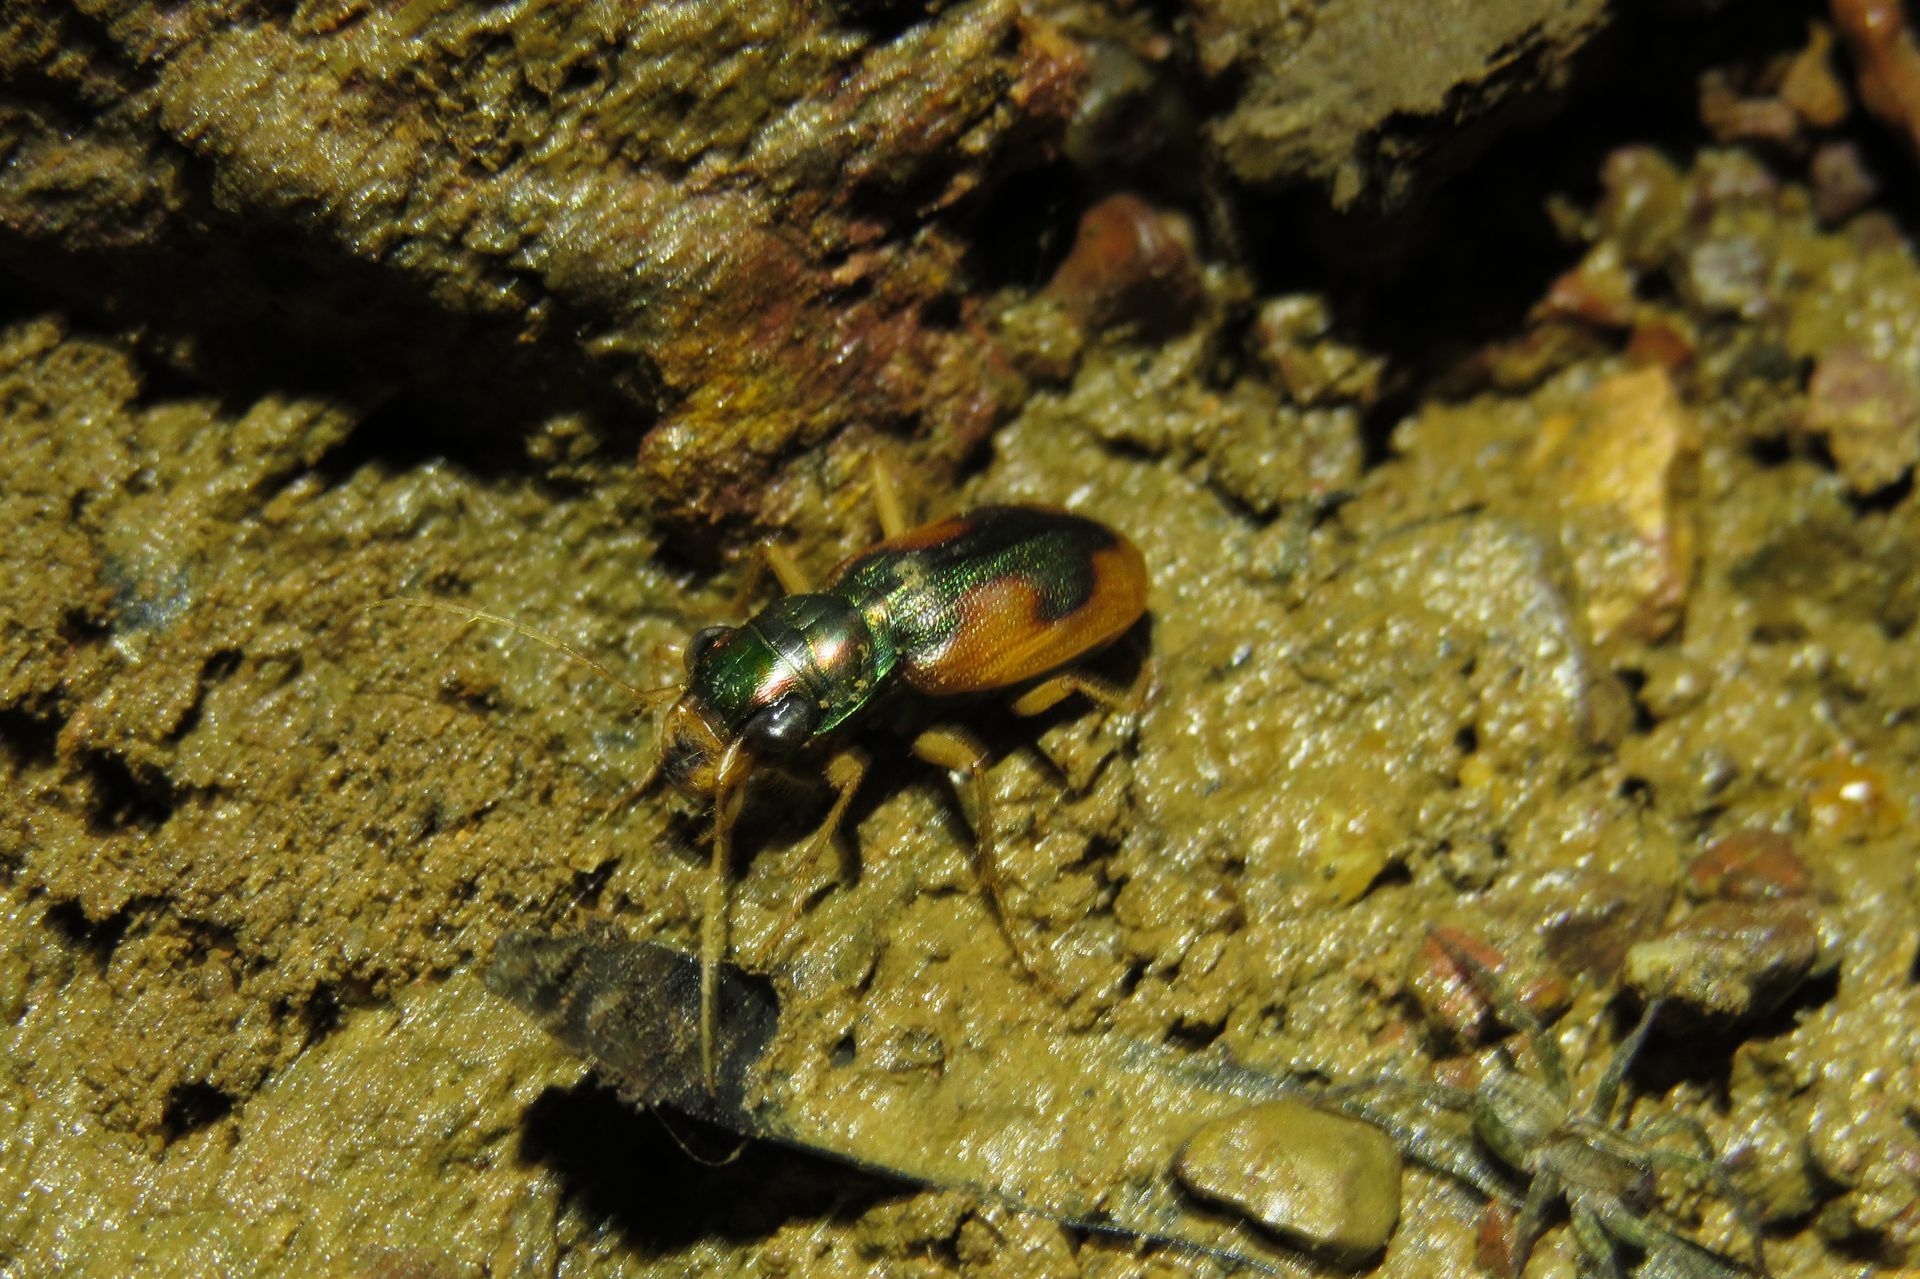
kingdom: Animalia
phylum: Arthropoda
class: Insecta
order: Coleoptera
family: Carabidae
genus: Pseudotetracha
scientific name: Pseudotetracha australasiae
